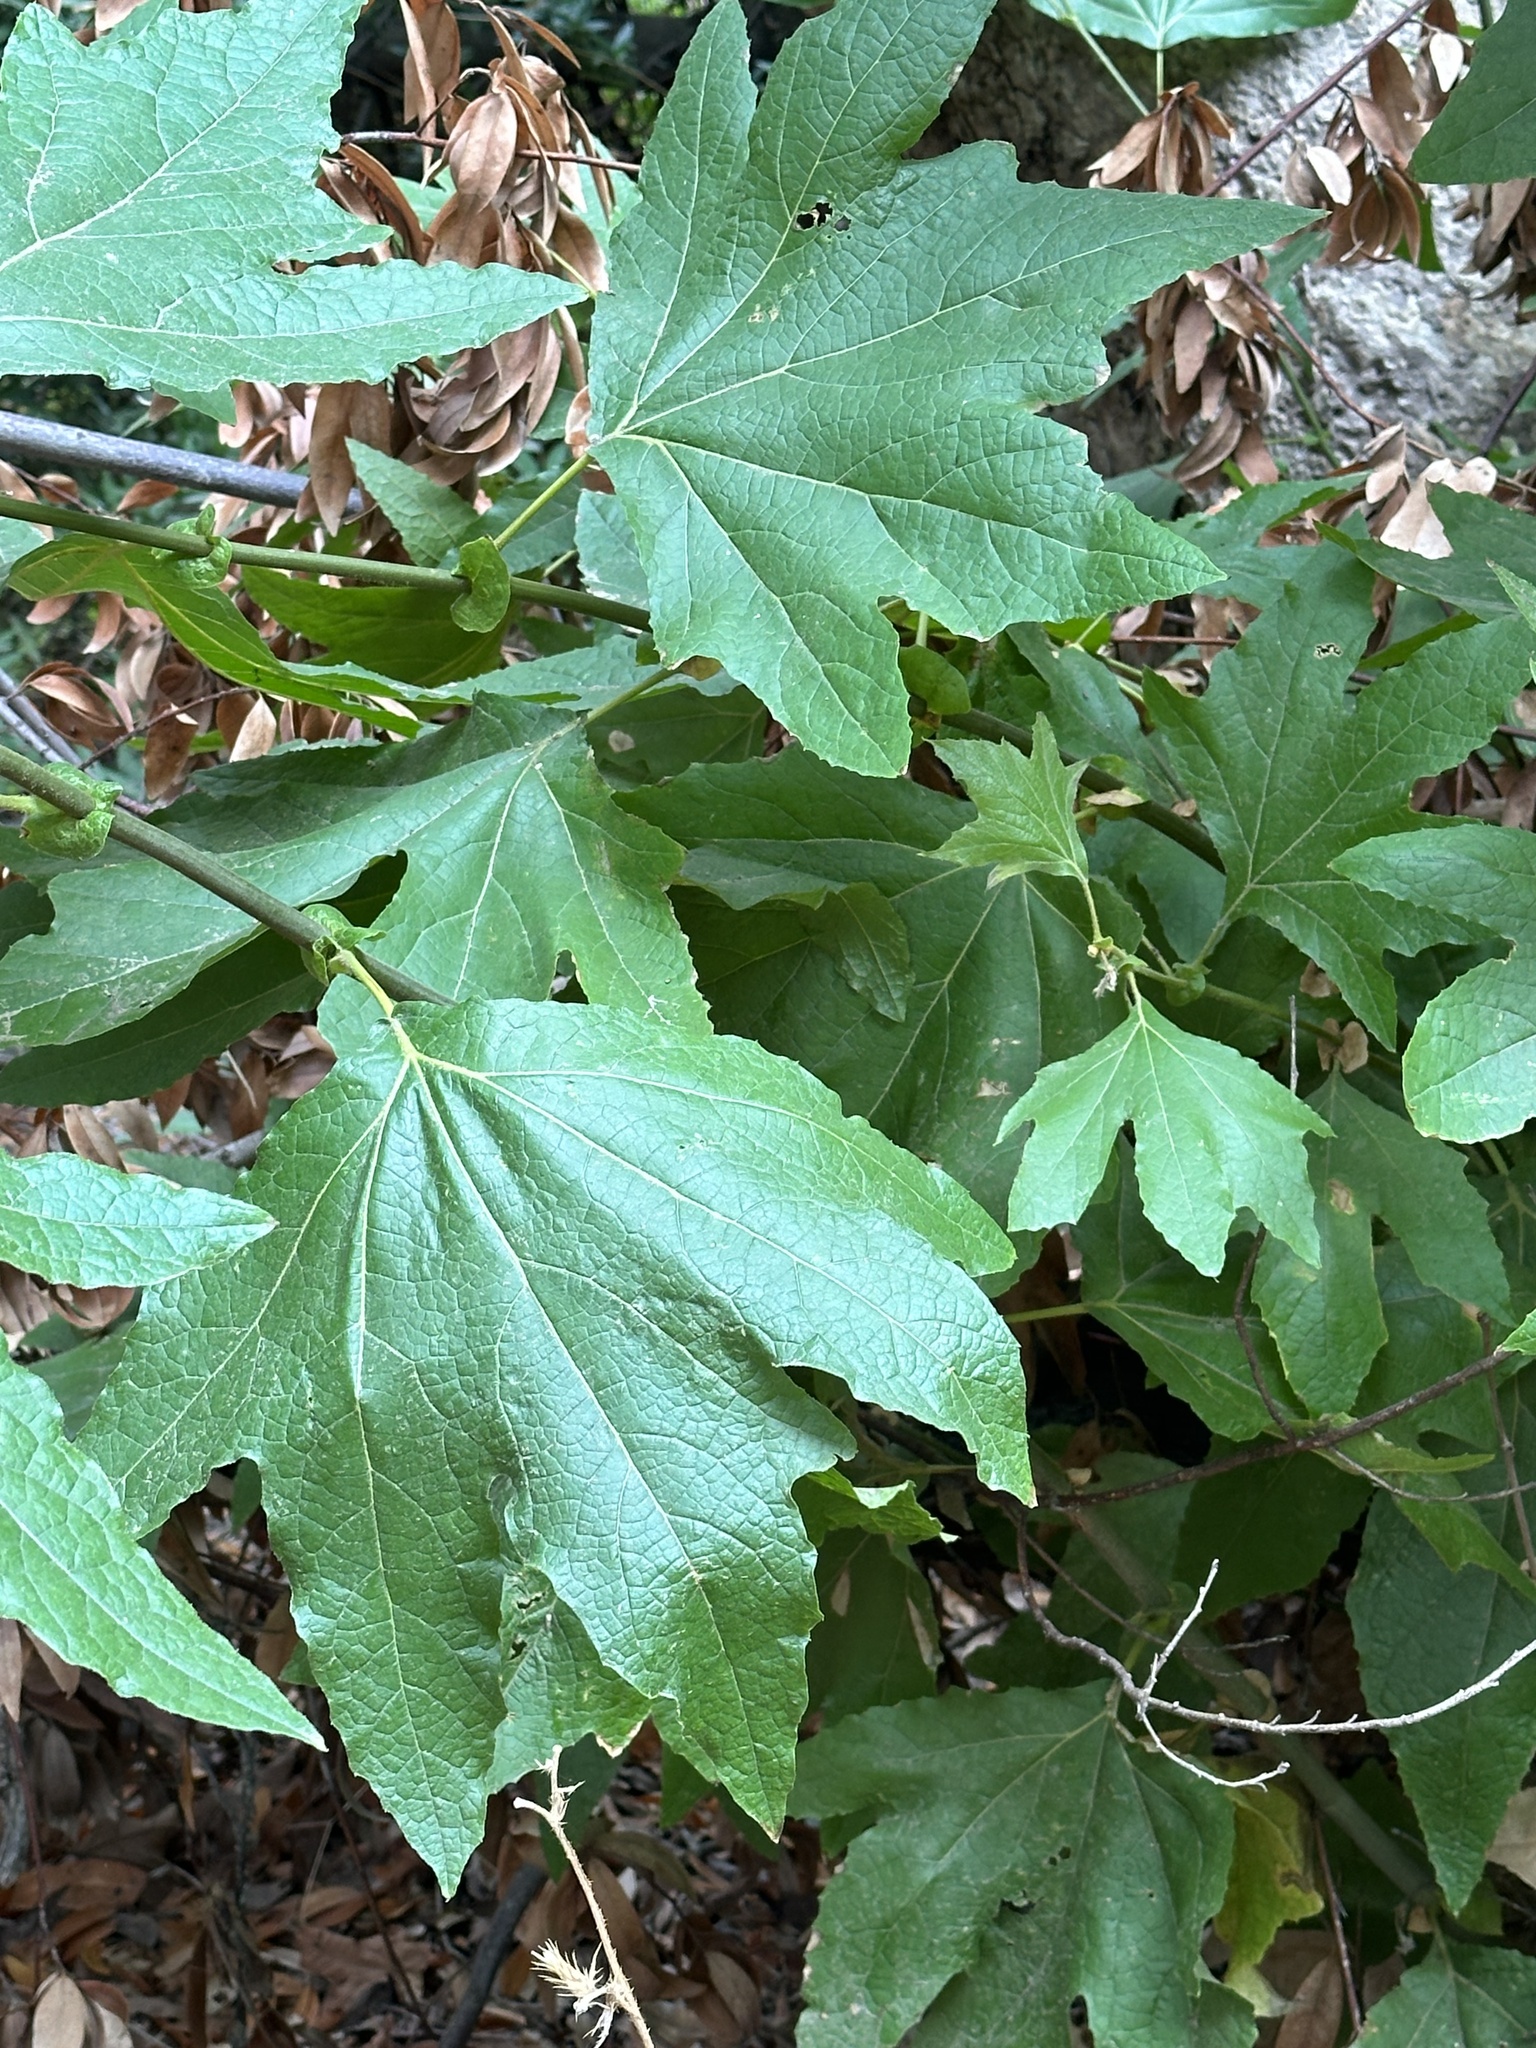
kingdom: Plantae
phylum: Tracheophyta
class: Magnoliopsida
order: Proteales
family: Platanaceae
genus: Platanus
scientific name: Platanus racemosa
